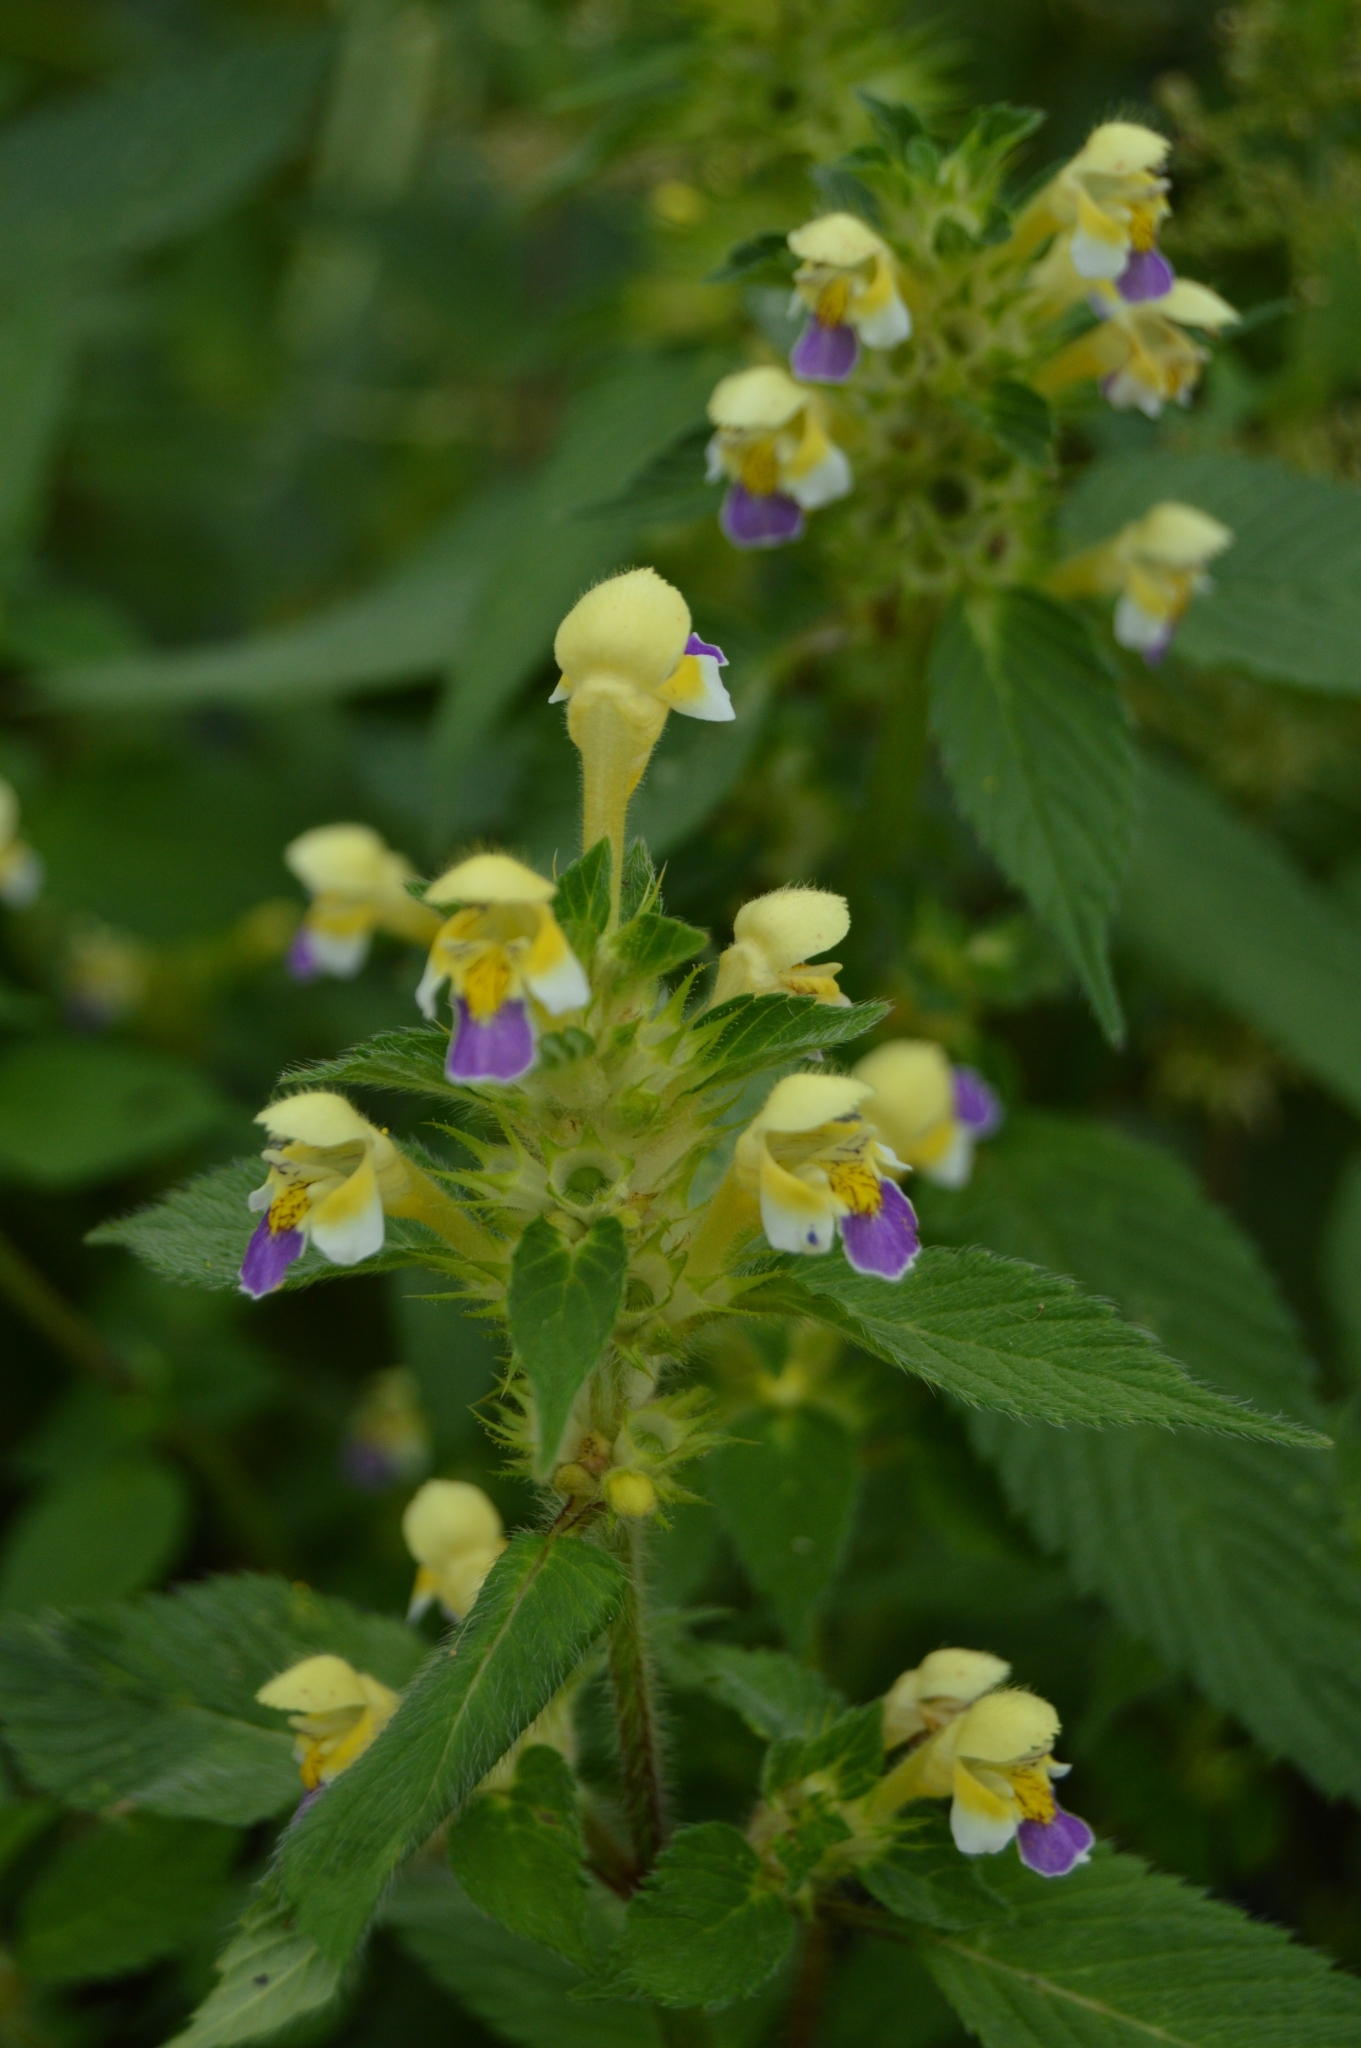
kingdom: Plantae
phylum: Tracheophyta
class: Magnoliopsida
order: Lamiales
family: Lamiaceae
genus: Galeopsis
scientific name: Galeopsis speciosa
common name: Large-flowered hemp-nettle
